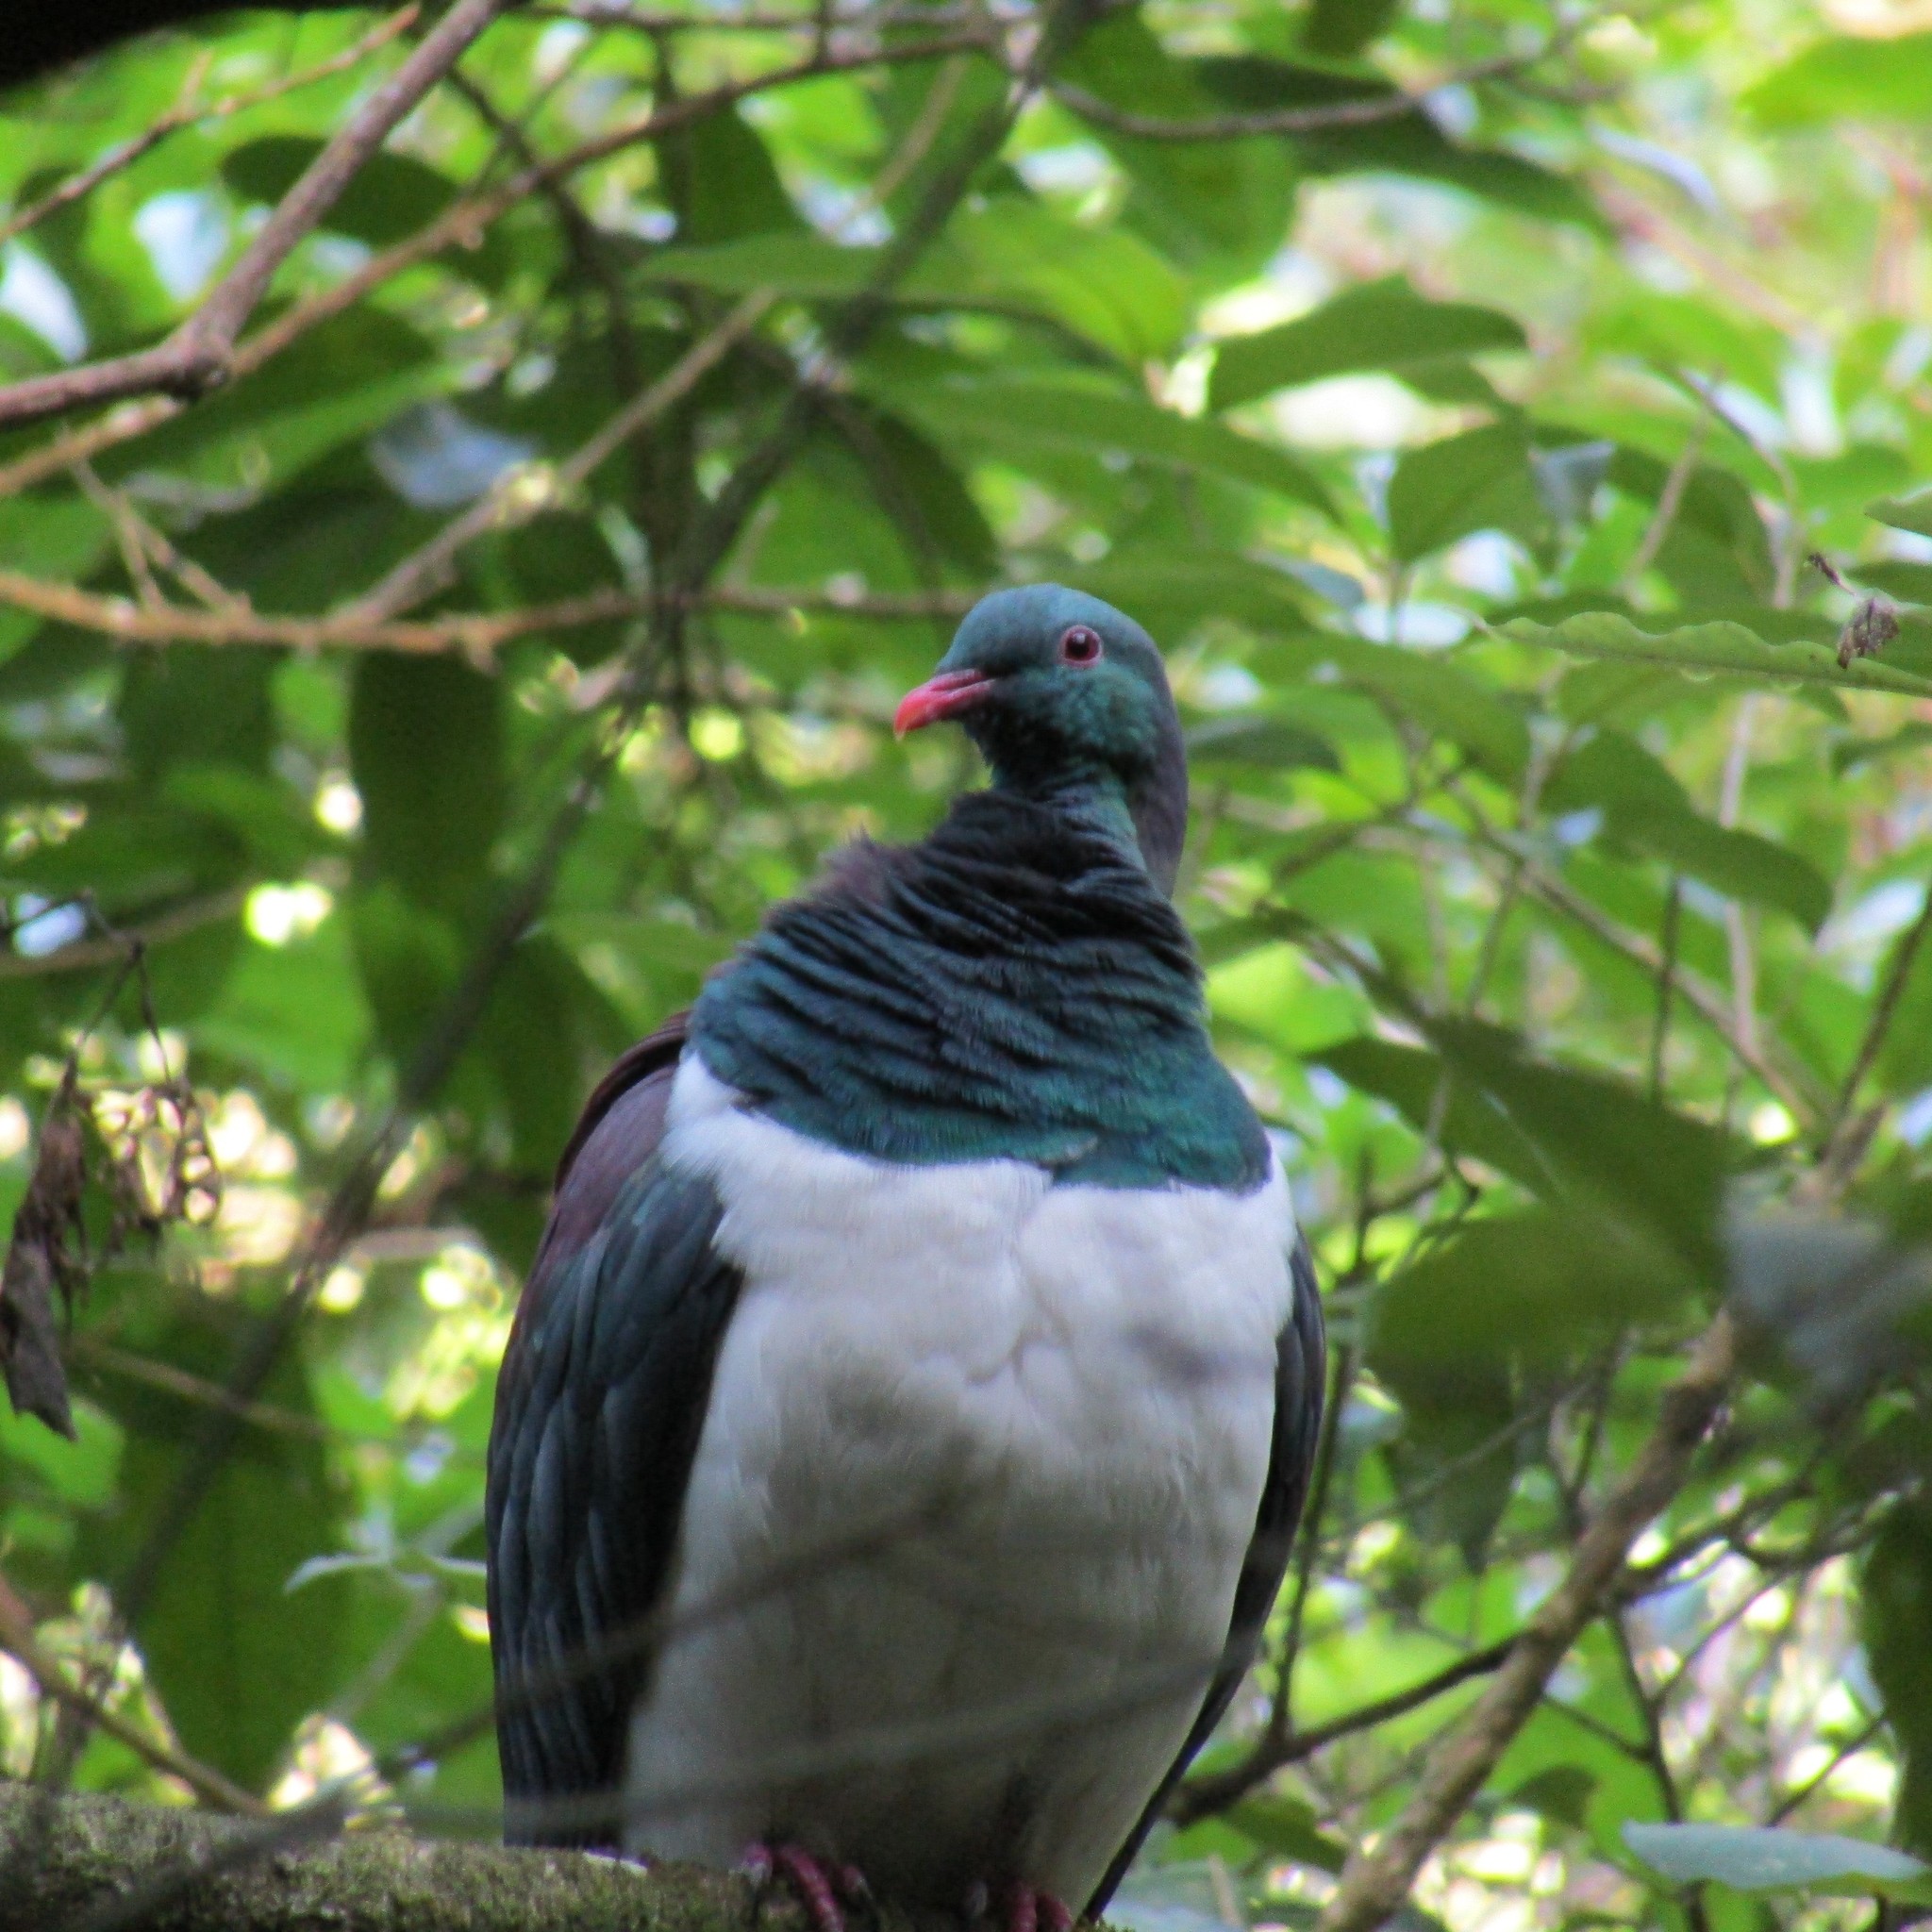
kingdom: Animalia
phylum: Chordata
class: Aves
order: Columbiformes
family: Columbidae
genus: Hemiphaga
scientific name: Hemiphaga novaeseelandiae
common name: New zealand pigeon
